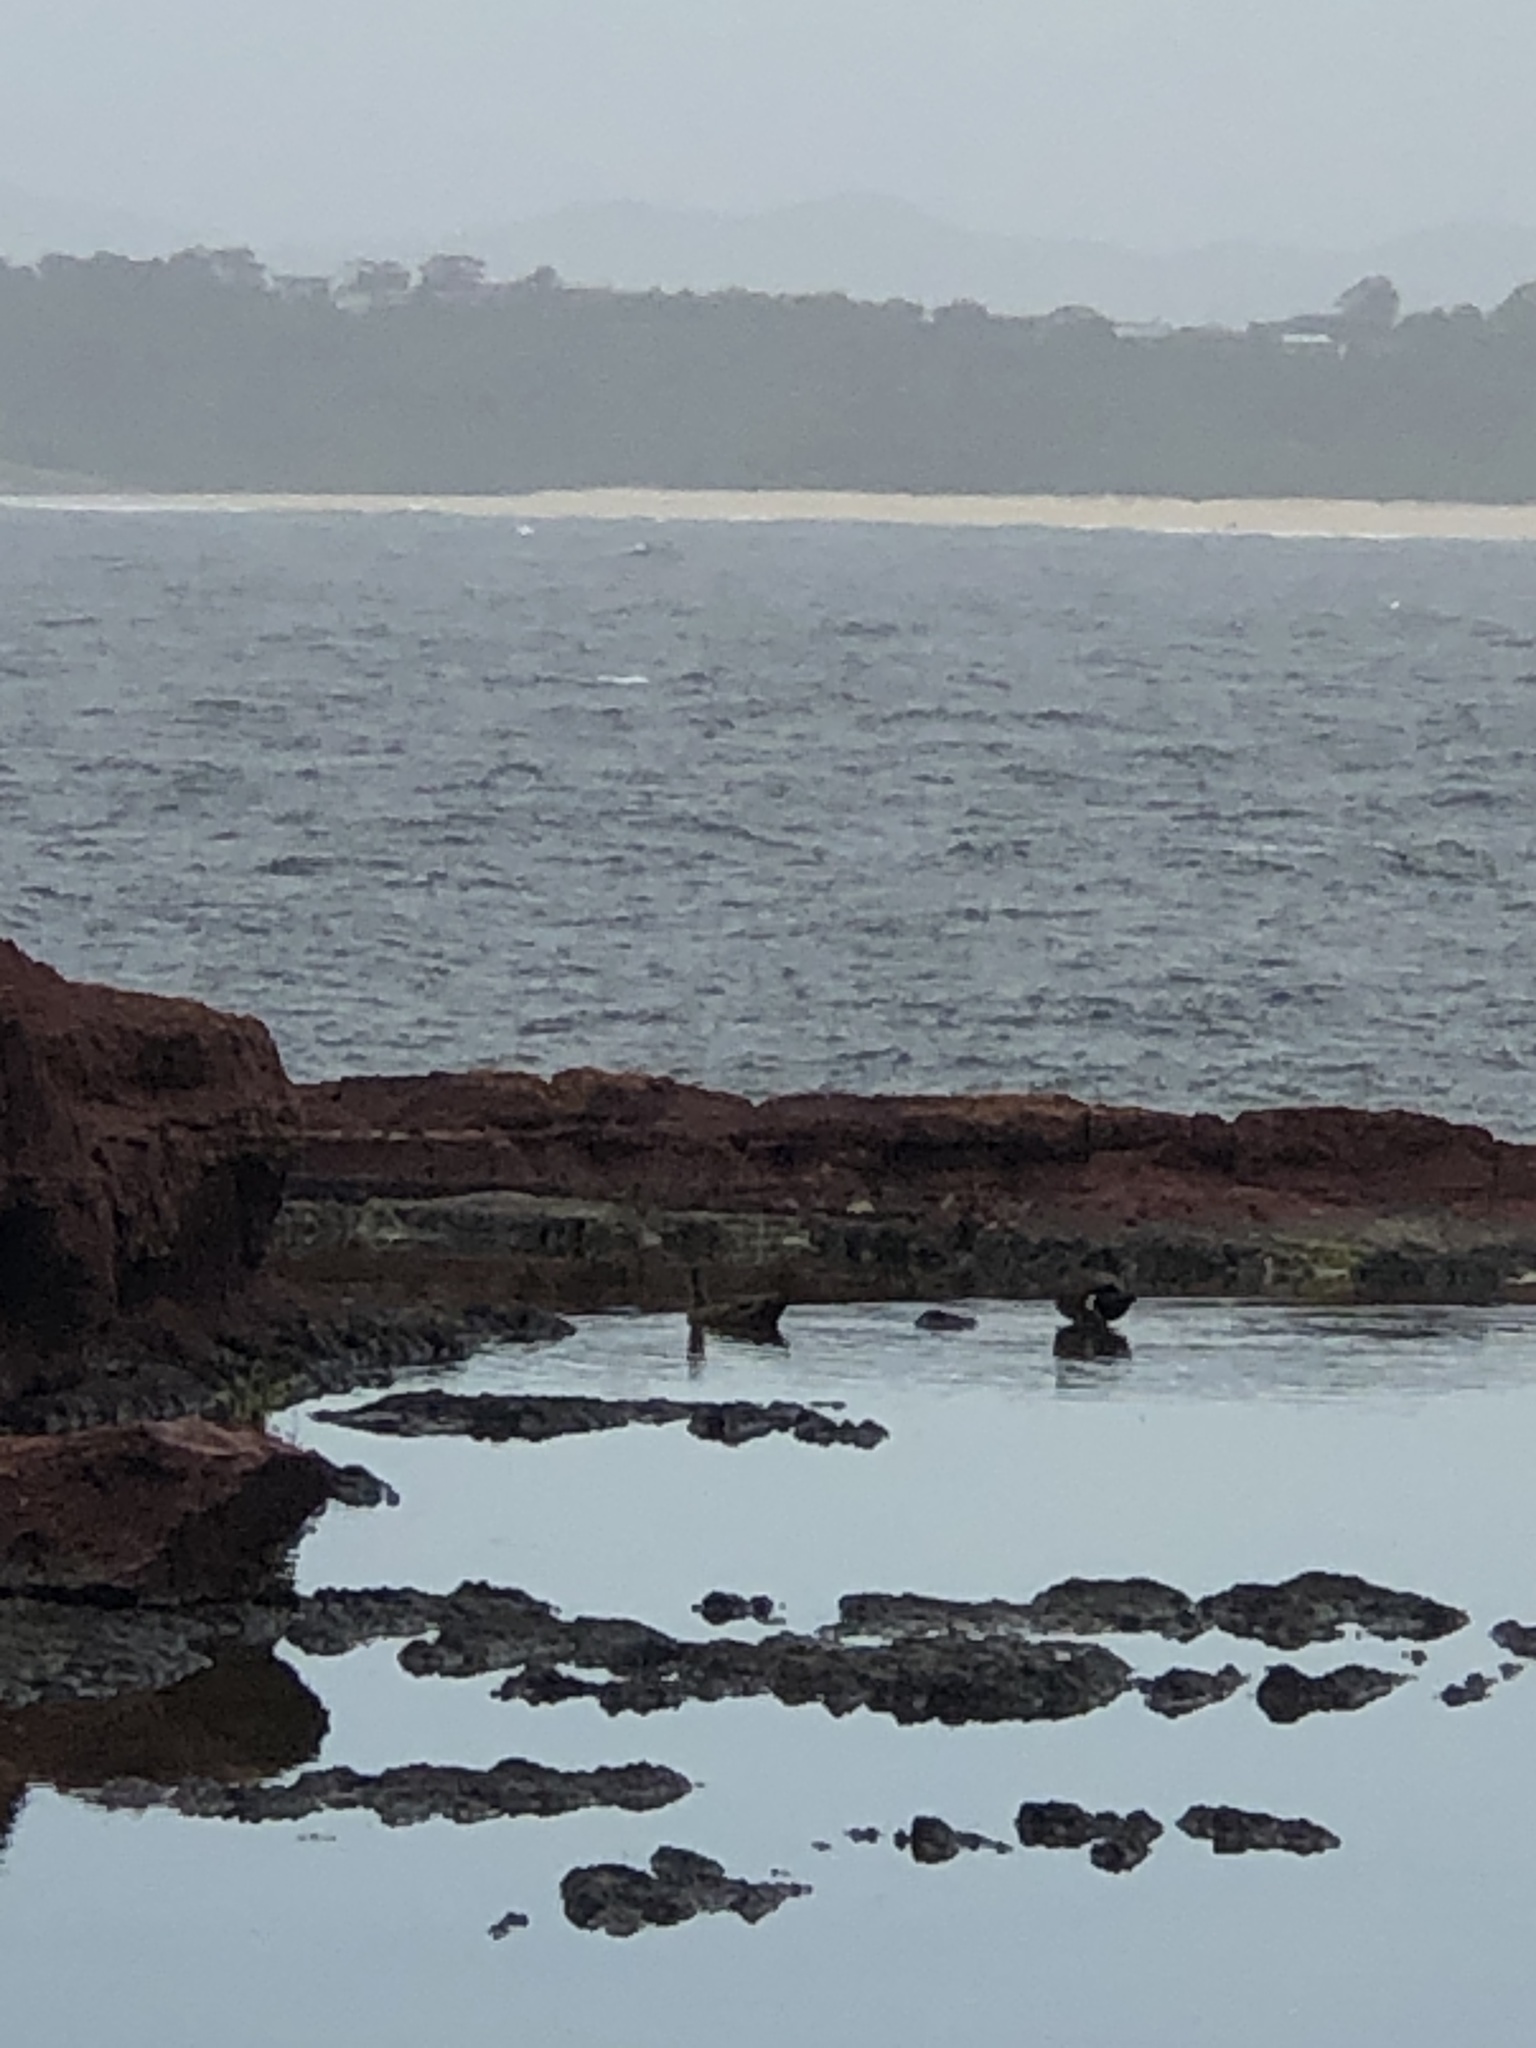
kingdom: Animalia
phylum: Chordata
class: Aves
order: Anseriformes
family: Anatidae
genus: Anas
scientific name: Anas castanea
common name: Chestnut teal
